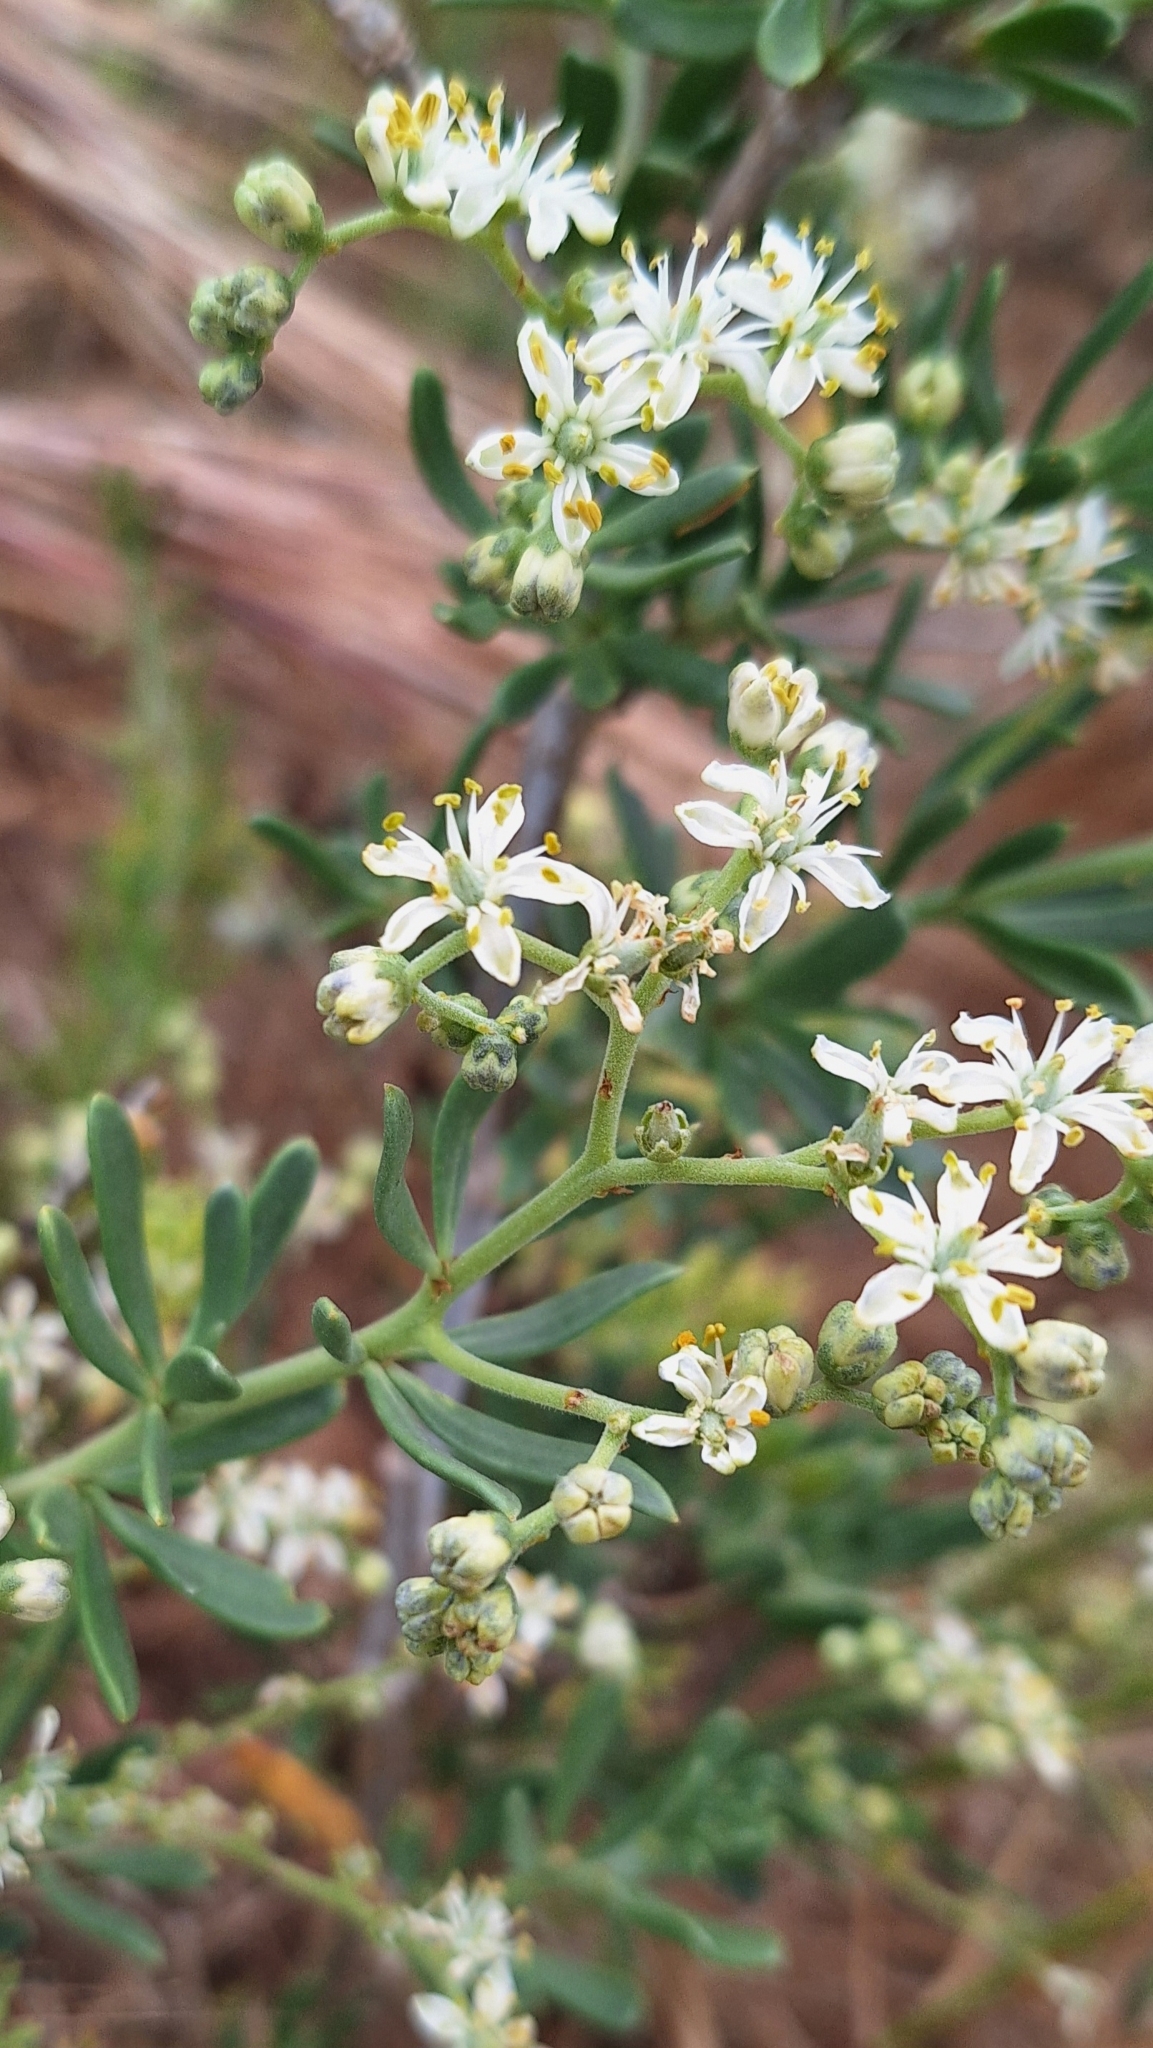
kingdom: Plantae
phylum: Tracheophyta
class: Magnoliopsida
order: Sapindales
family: Nitrariaceae
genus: Nitraria
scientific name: Nitraria billardierei
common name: Dillonbush
